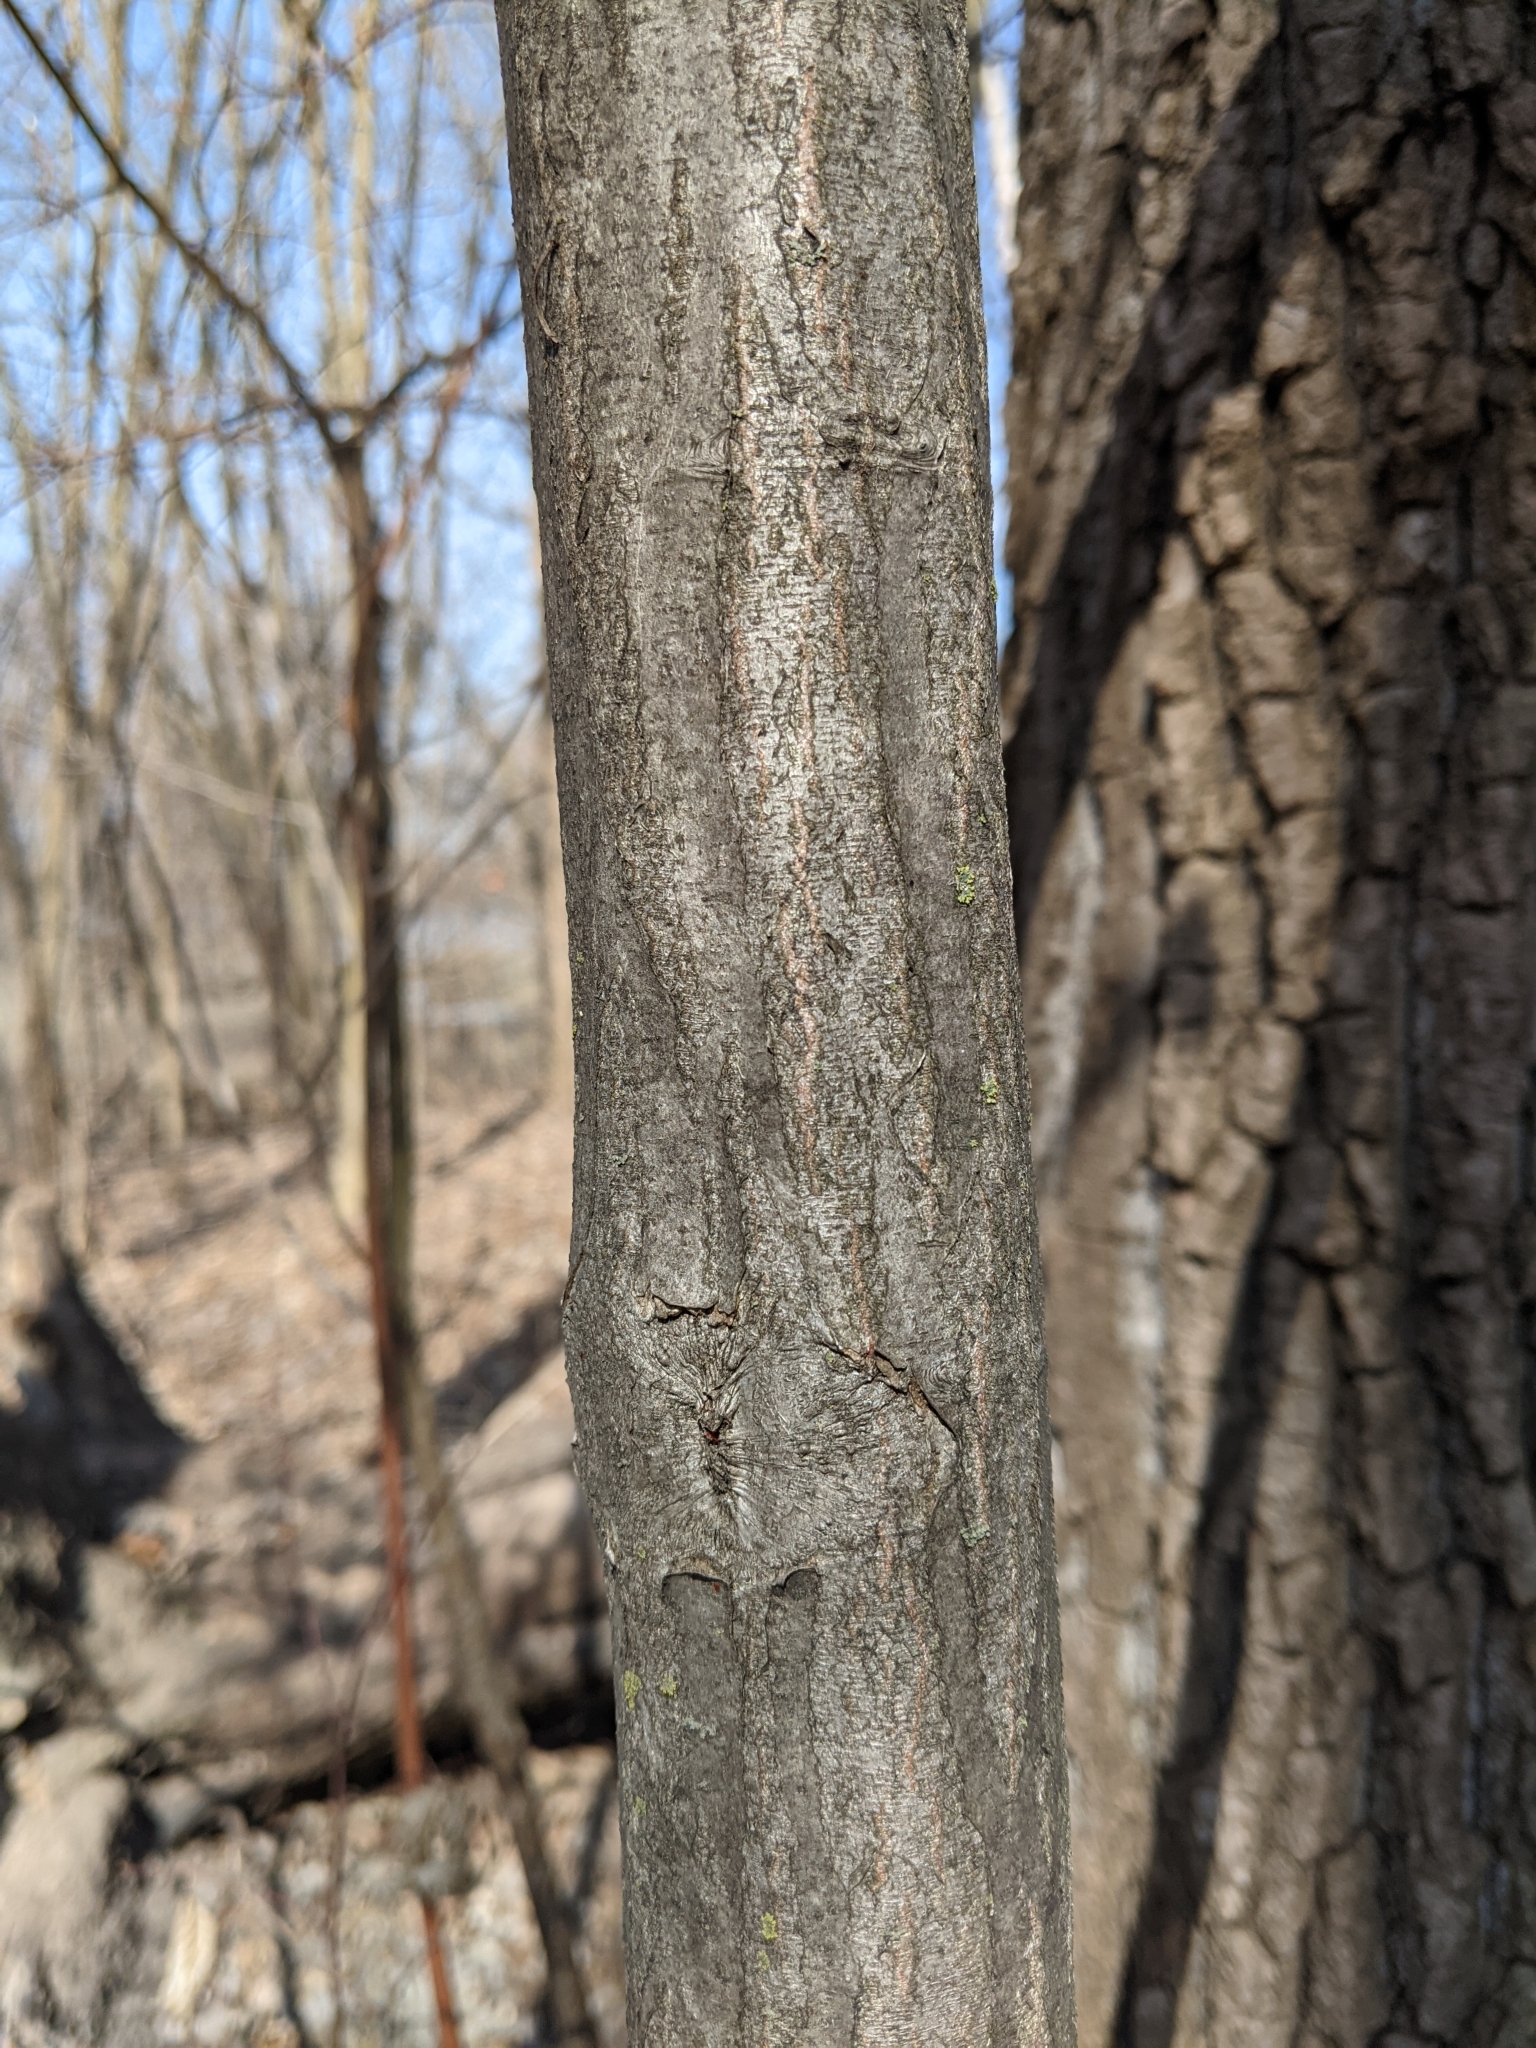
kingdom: Plantae
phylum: Tracheophyta
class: Magnoliopsida
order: Fagales
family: Betulaceae
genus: Carpinus
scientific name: Carpinus caroliniana
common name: American hornbeam
